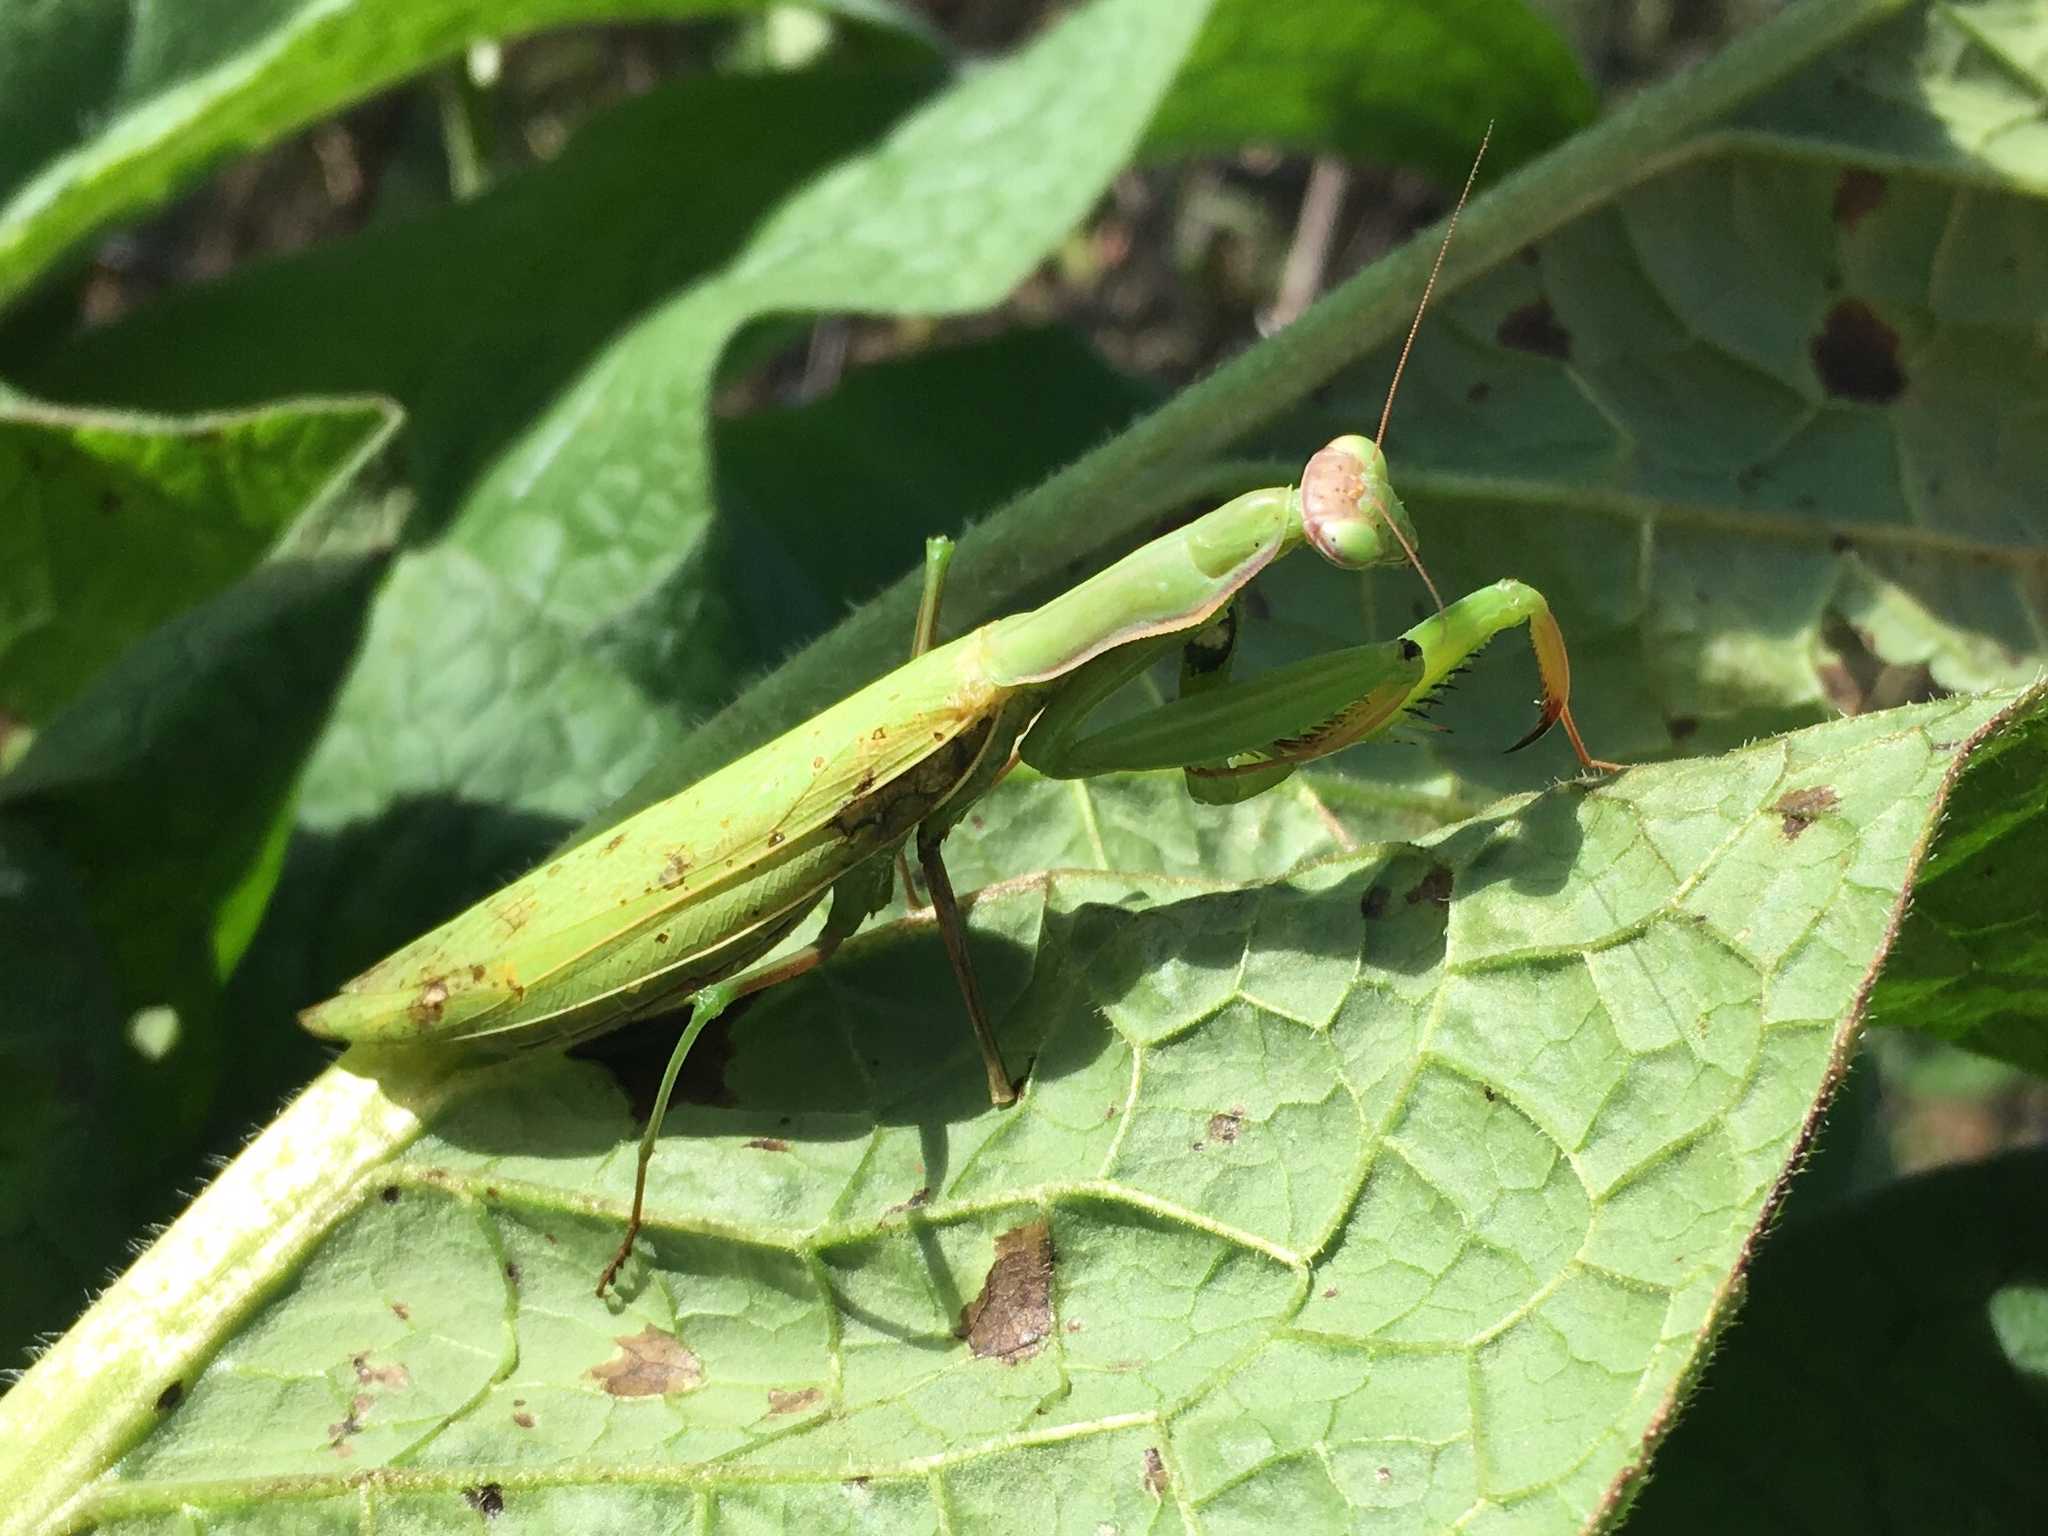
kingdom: Animalia
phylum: Arthropoda
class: Insecta
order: Mantodea
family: Mantidae
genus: Mantis
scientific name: Mantis religiosa
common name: Praying mantis
